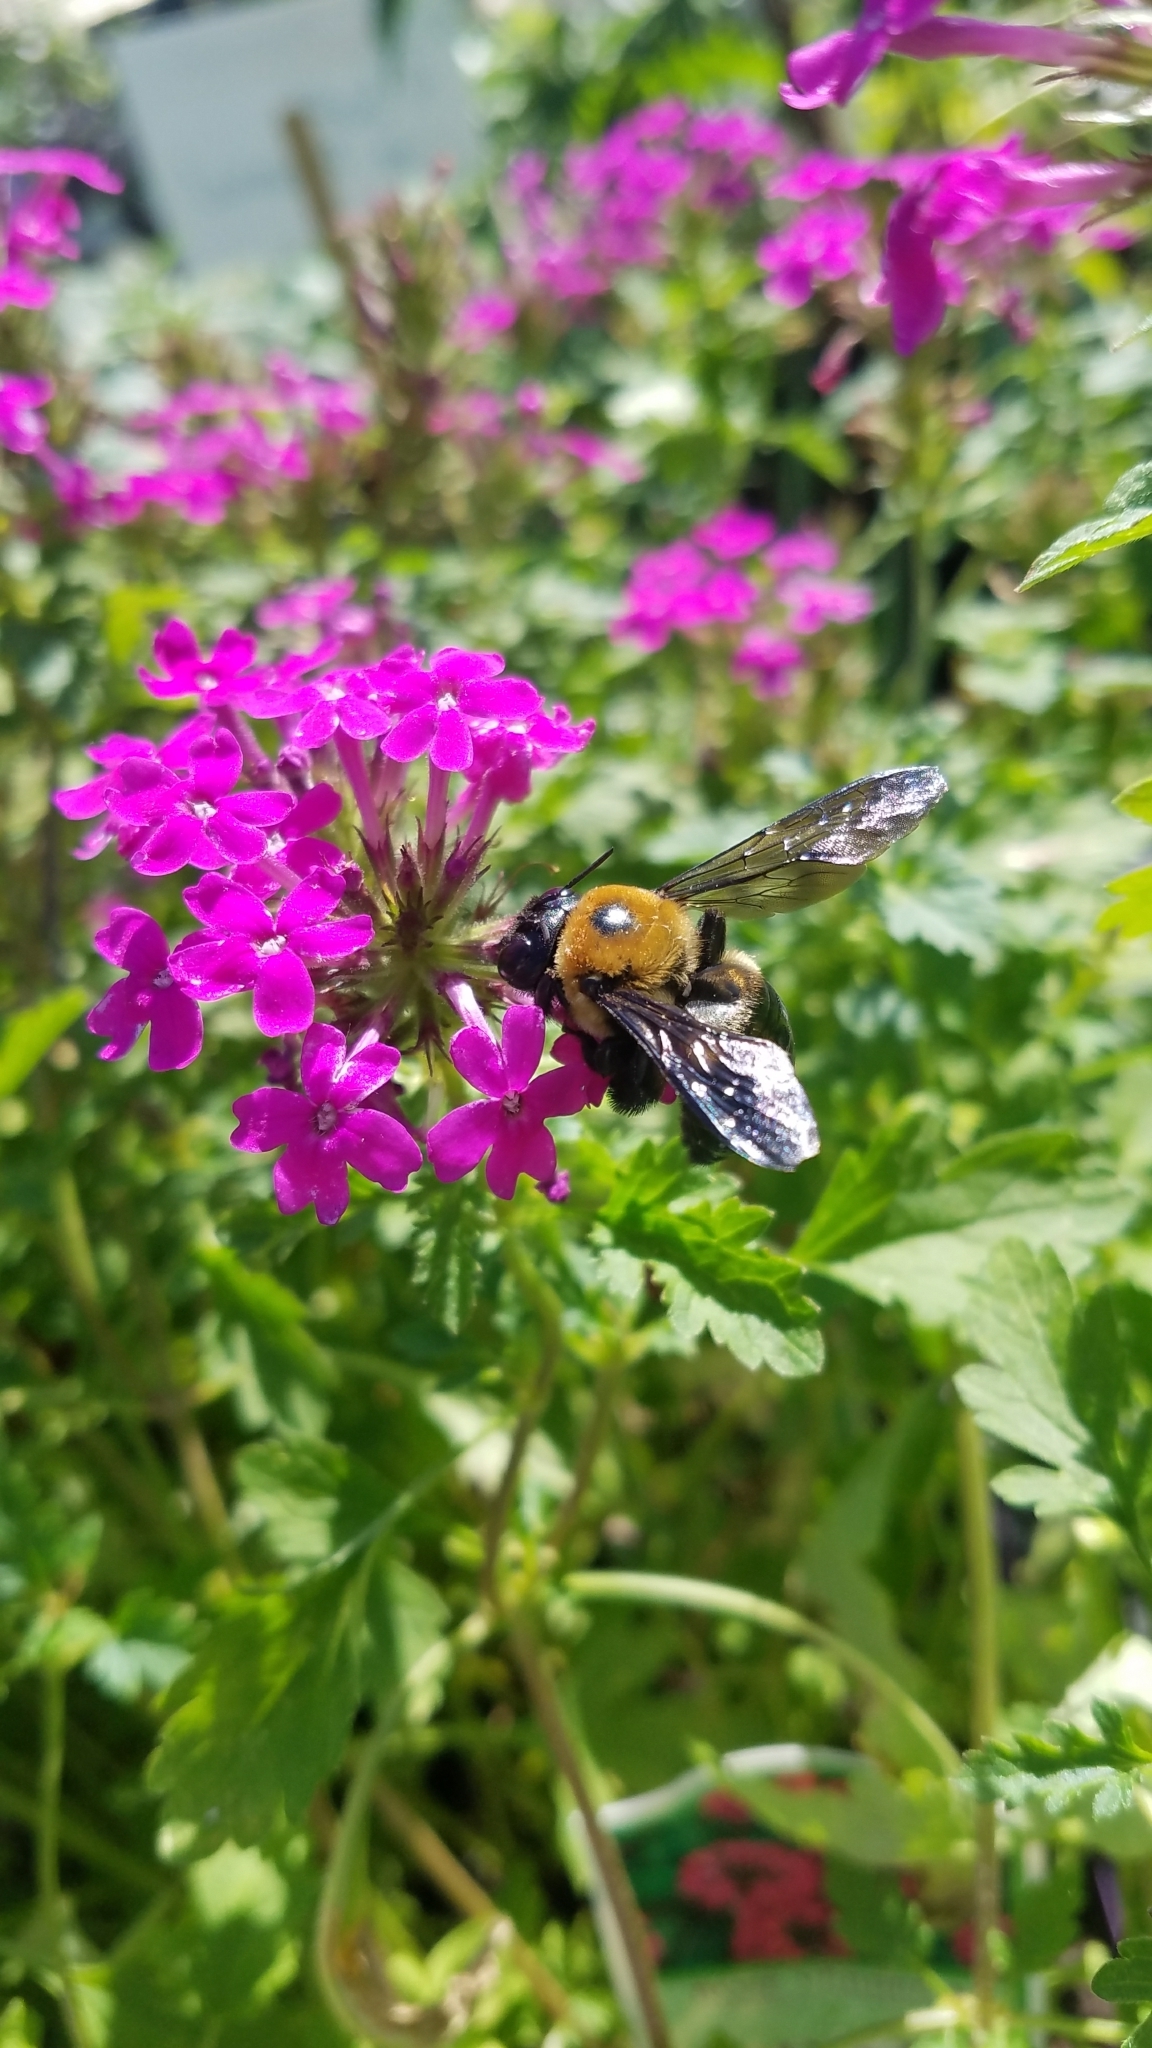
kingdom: Animalia
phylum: Arthropoda
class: Insecta
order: Hymenoptera
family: Apidae
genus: Xylocopa
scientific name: Xylocopa virginica
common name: Carpenter bee
